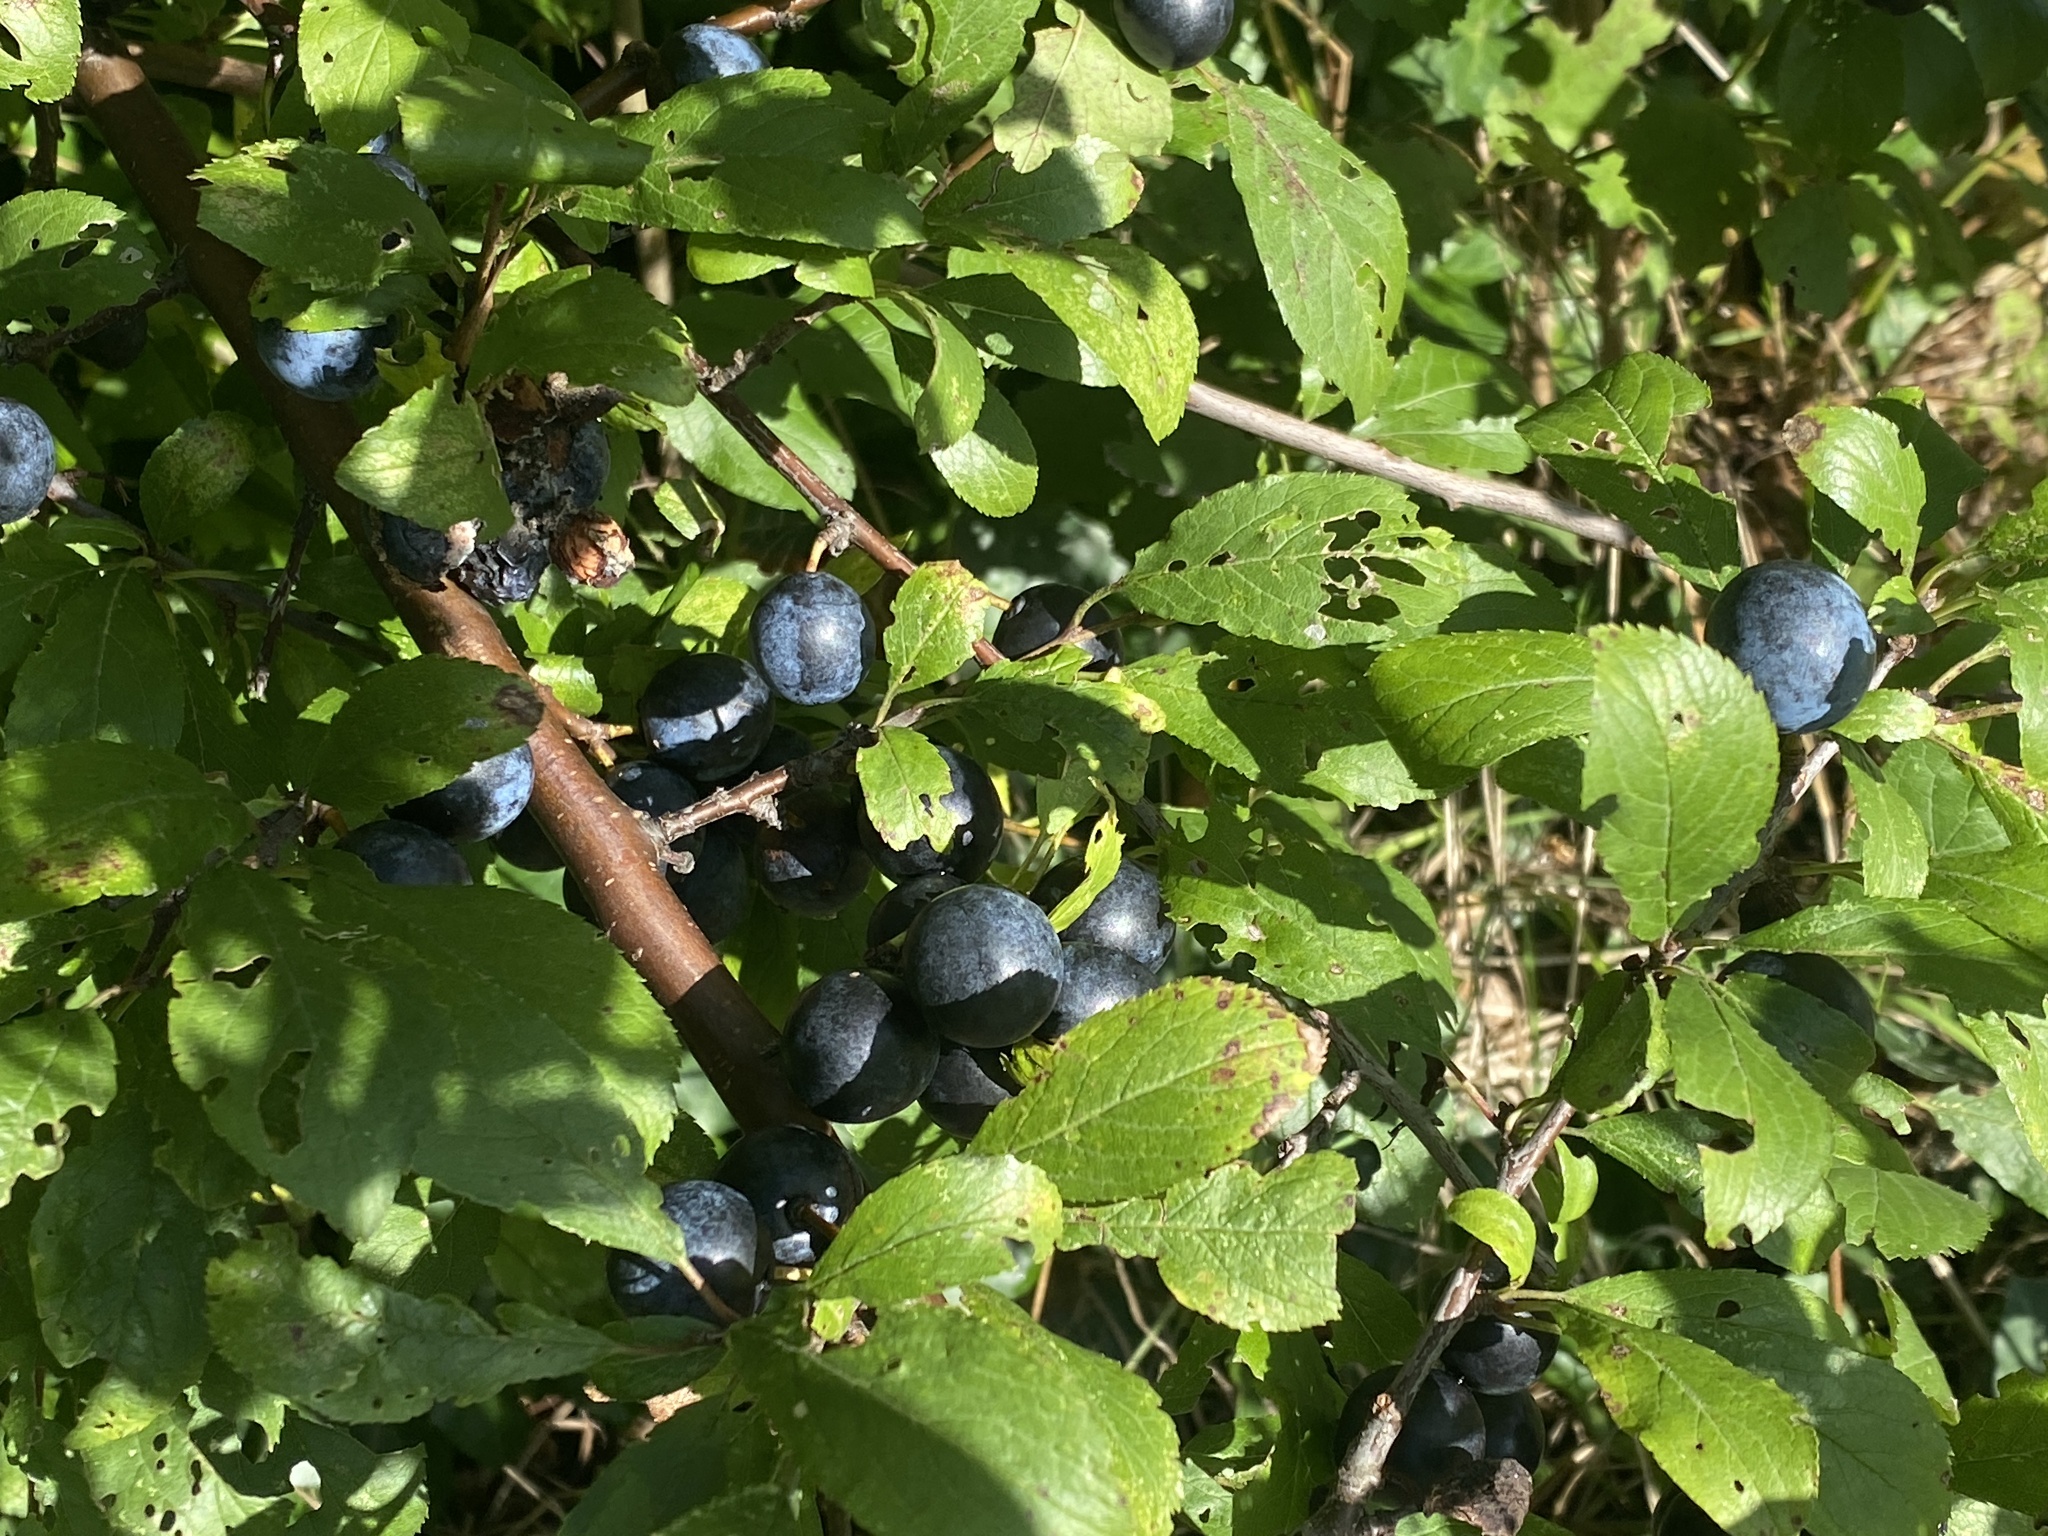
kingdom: Plantae
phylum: Tracheophyta
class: Magnoliopsida
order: Rosales
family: Rosaceae
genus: Prunus
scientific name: Prunus spinosa
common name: Blackthorn
